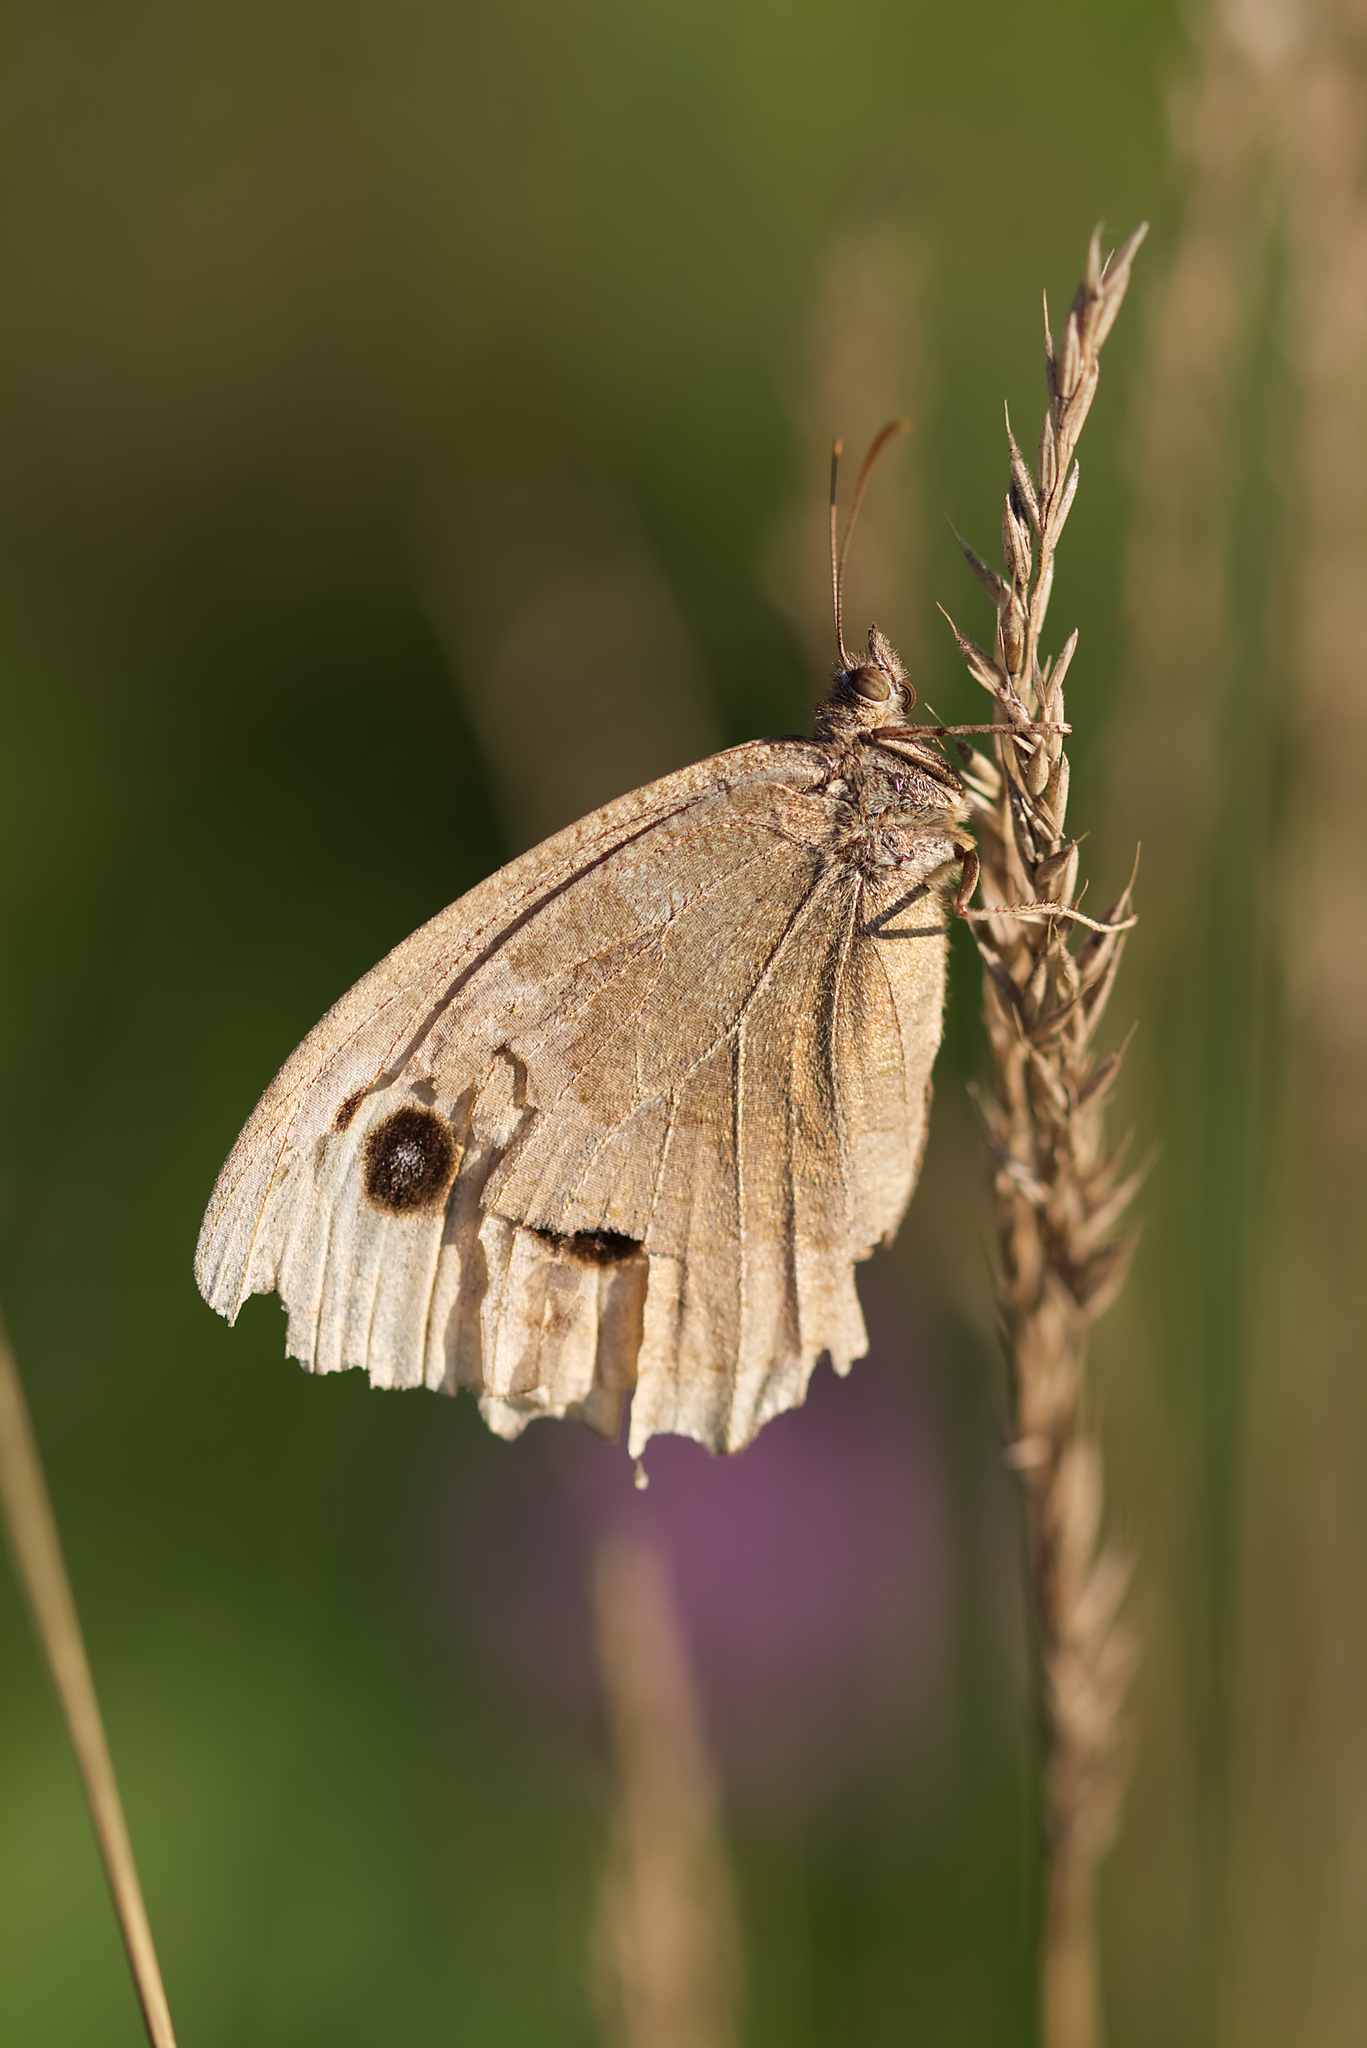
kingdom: Animalia
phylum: Arthropoda
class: Insecta
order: Lepidoptera
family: Nymphalidae
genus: Minois
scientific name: Minois dryas
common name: Dryad
